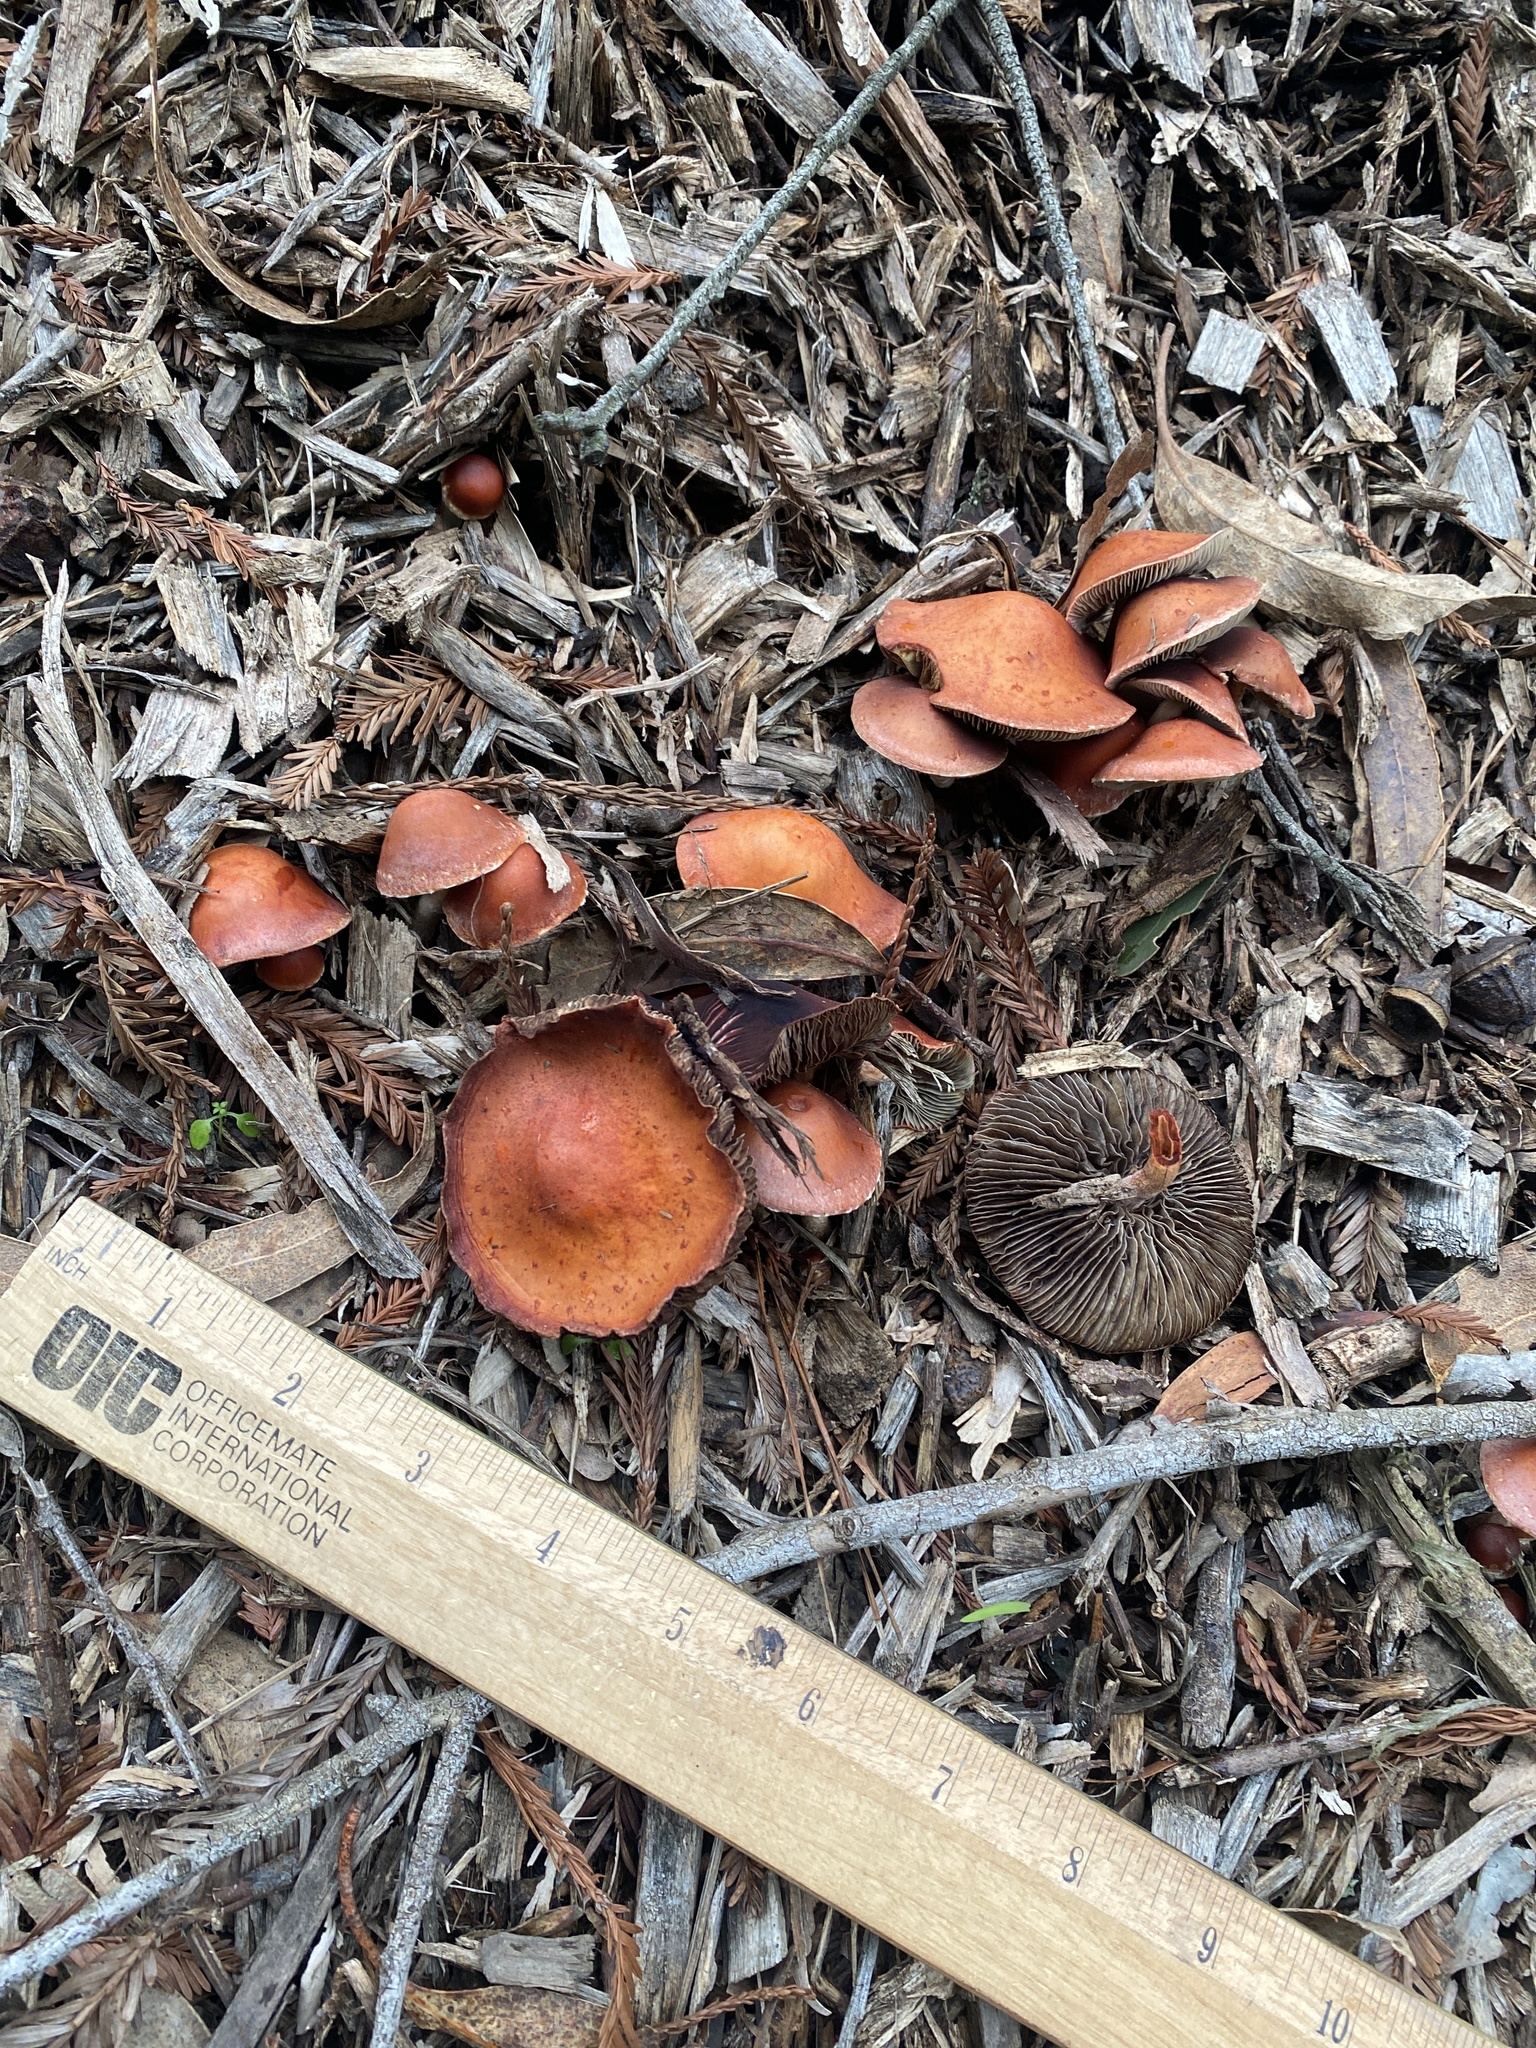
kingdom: Fungi
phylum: Basidiomycota
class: Agaricomycetes
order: Agaricales
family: Strophariaceae
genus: Leratiomyces
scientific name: Leratiomyces ceres
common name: Redlead roundhead
